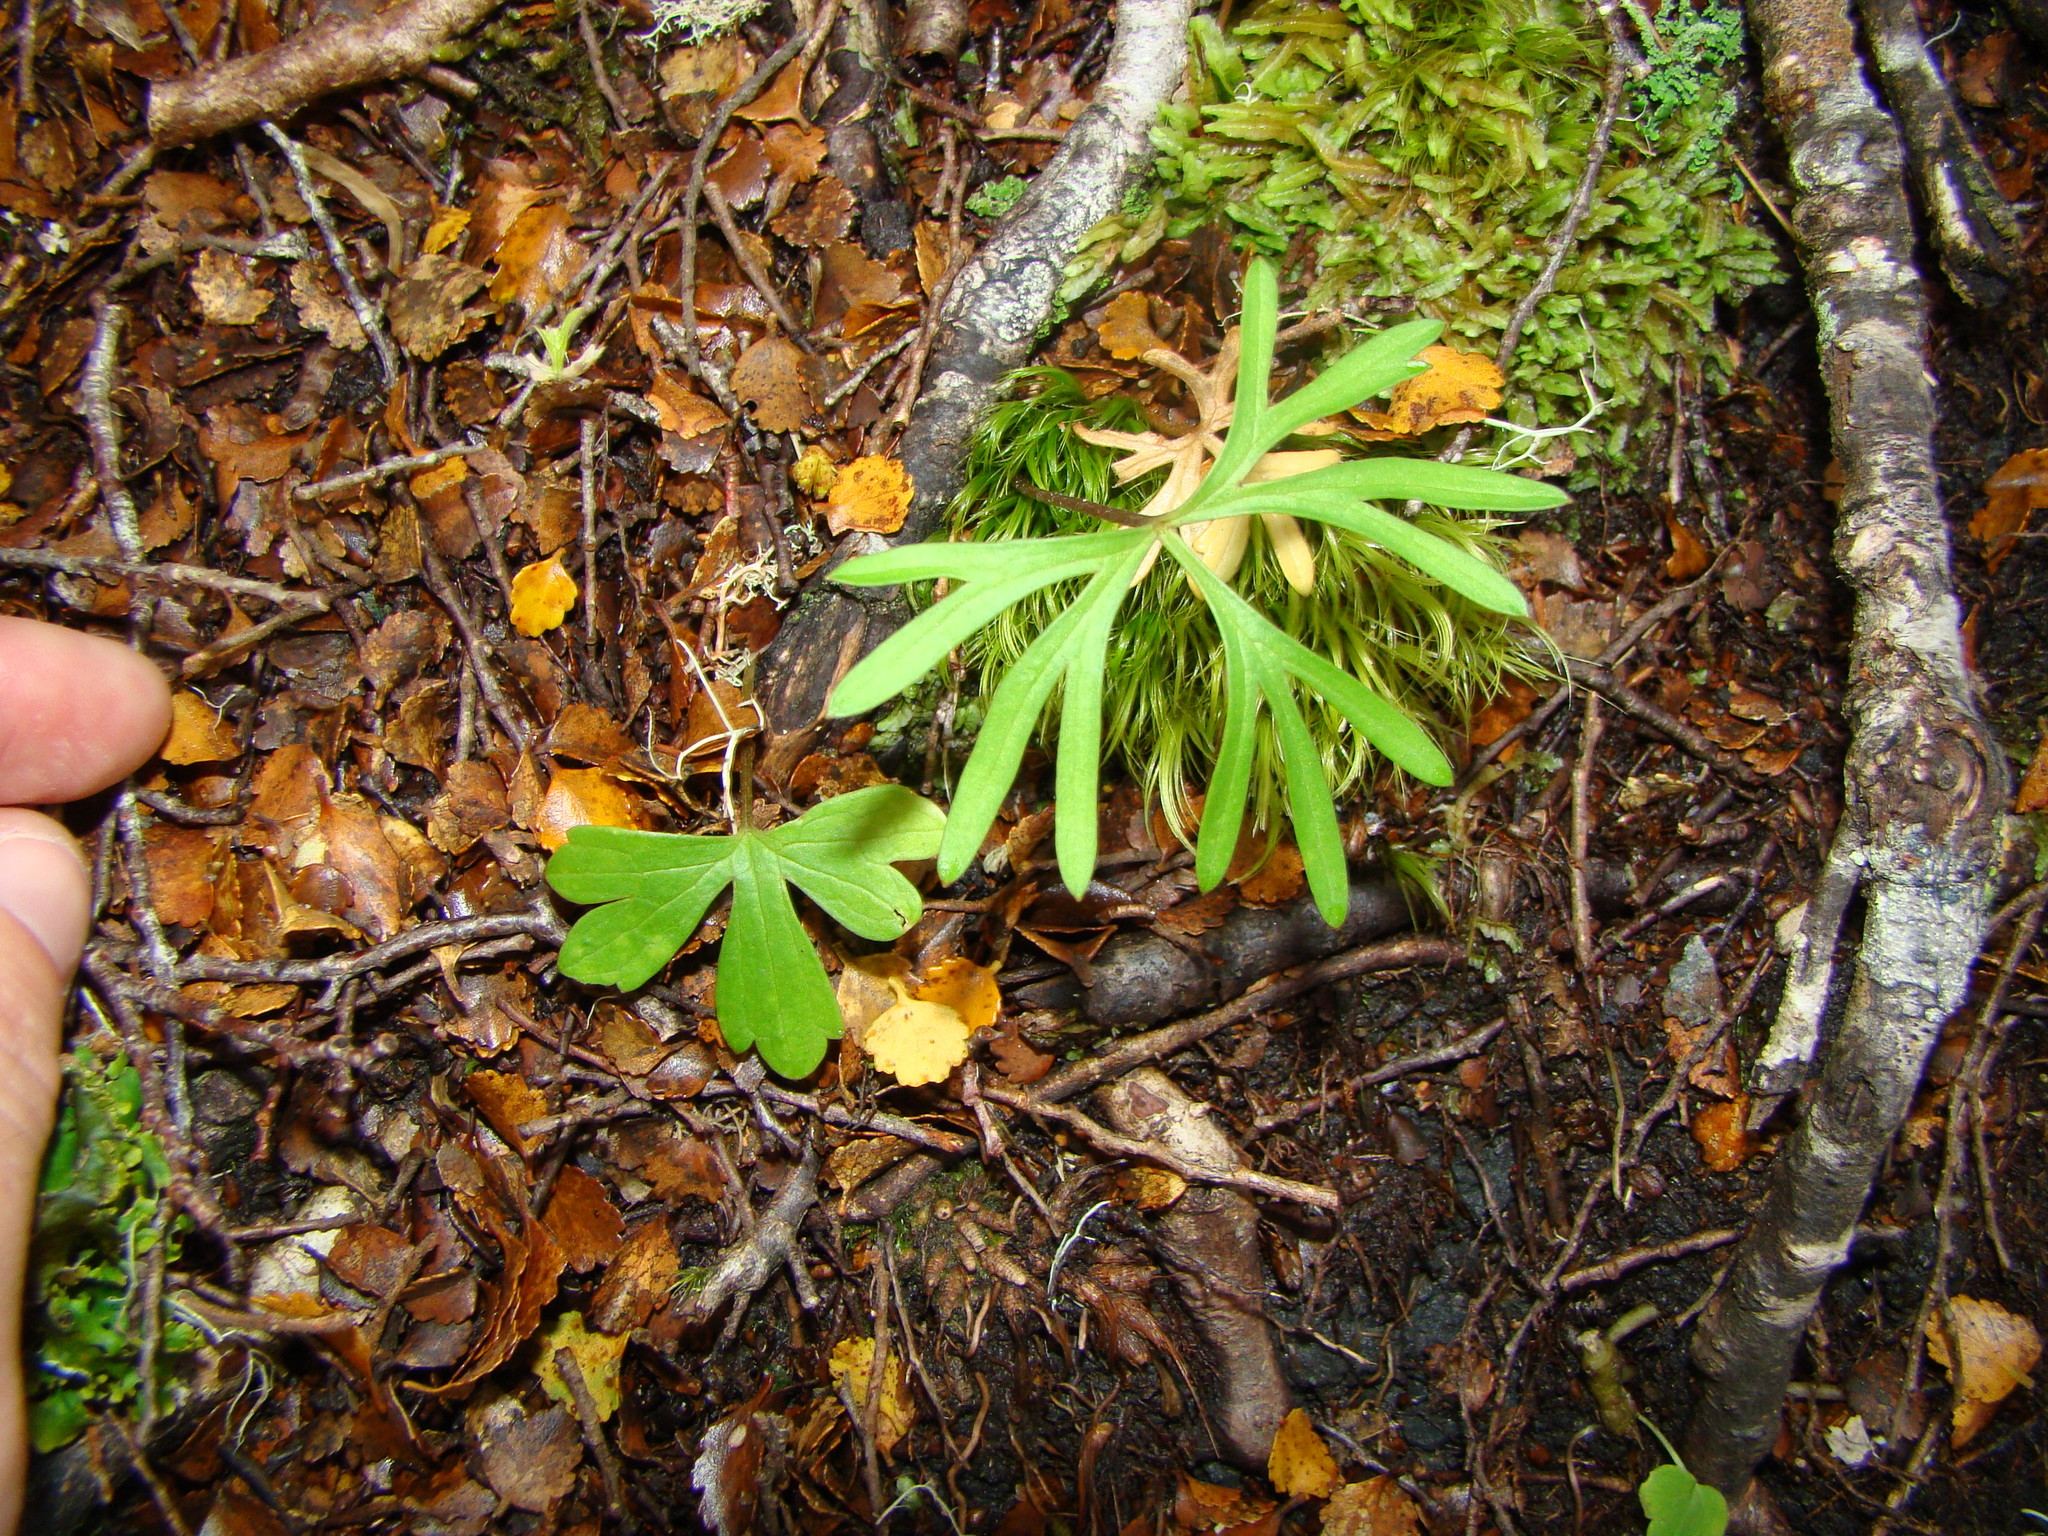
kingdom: Plantae
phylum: Tracheophyta
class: Magnoliopsida
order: Ranunculales
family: Ranunculaceae
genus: Ranunculus
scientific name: Ranunculus verticillatus
